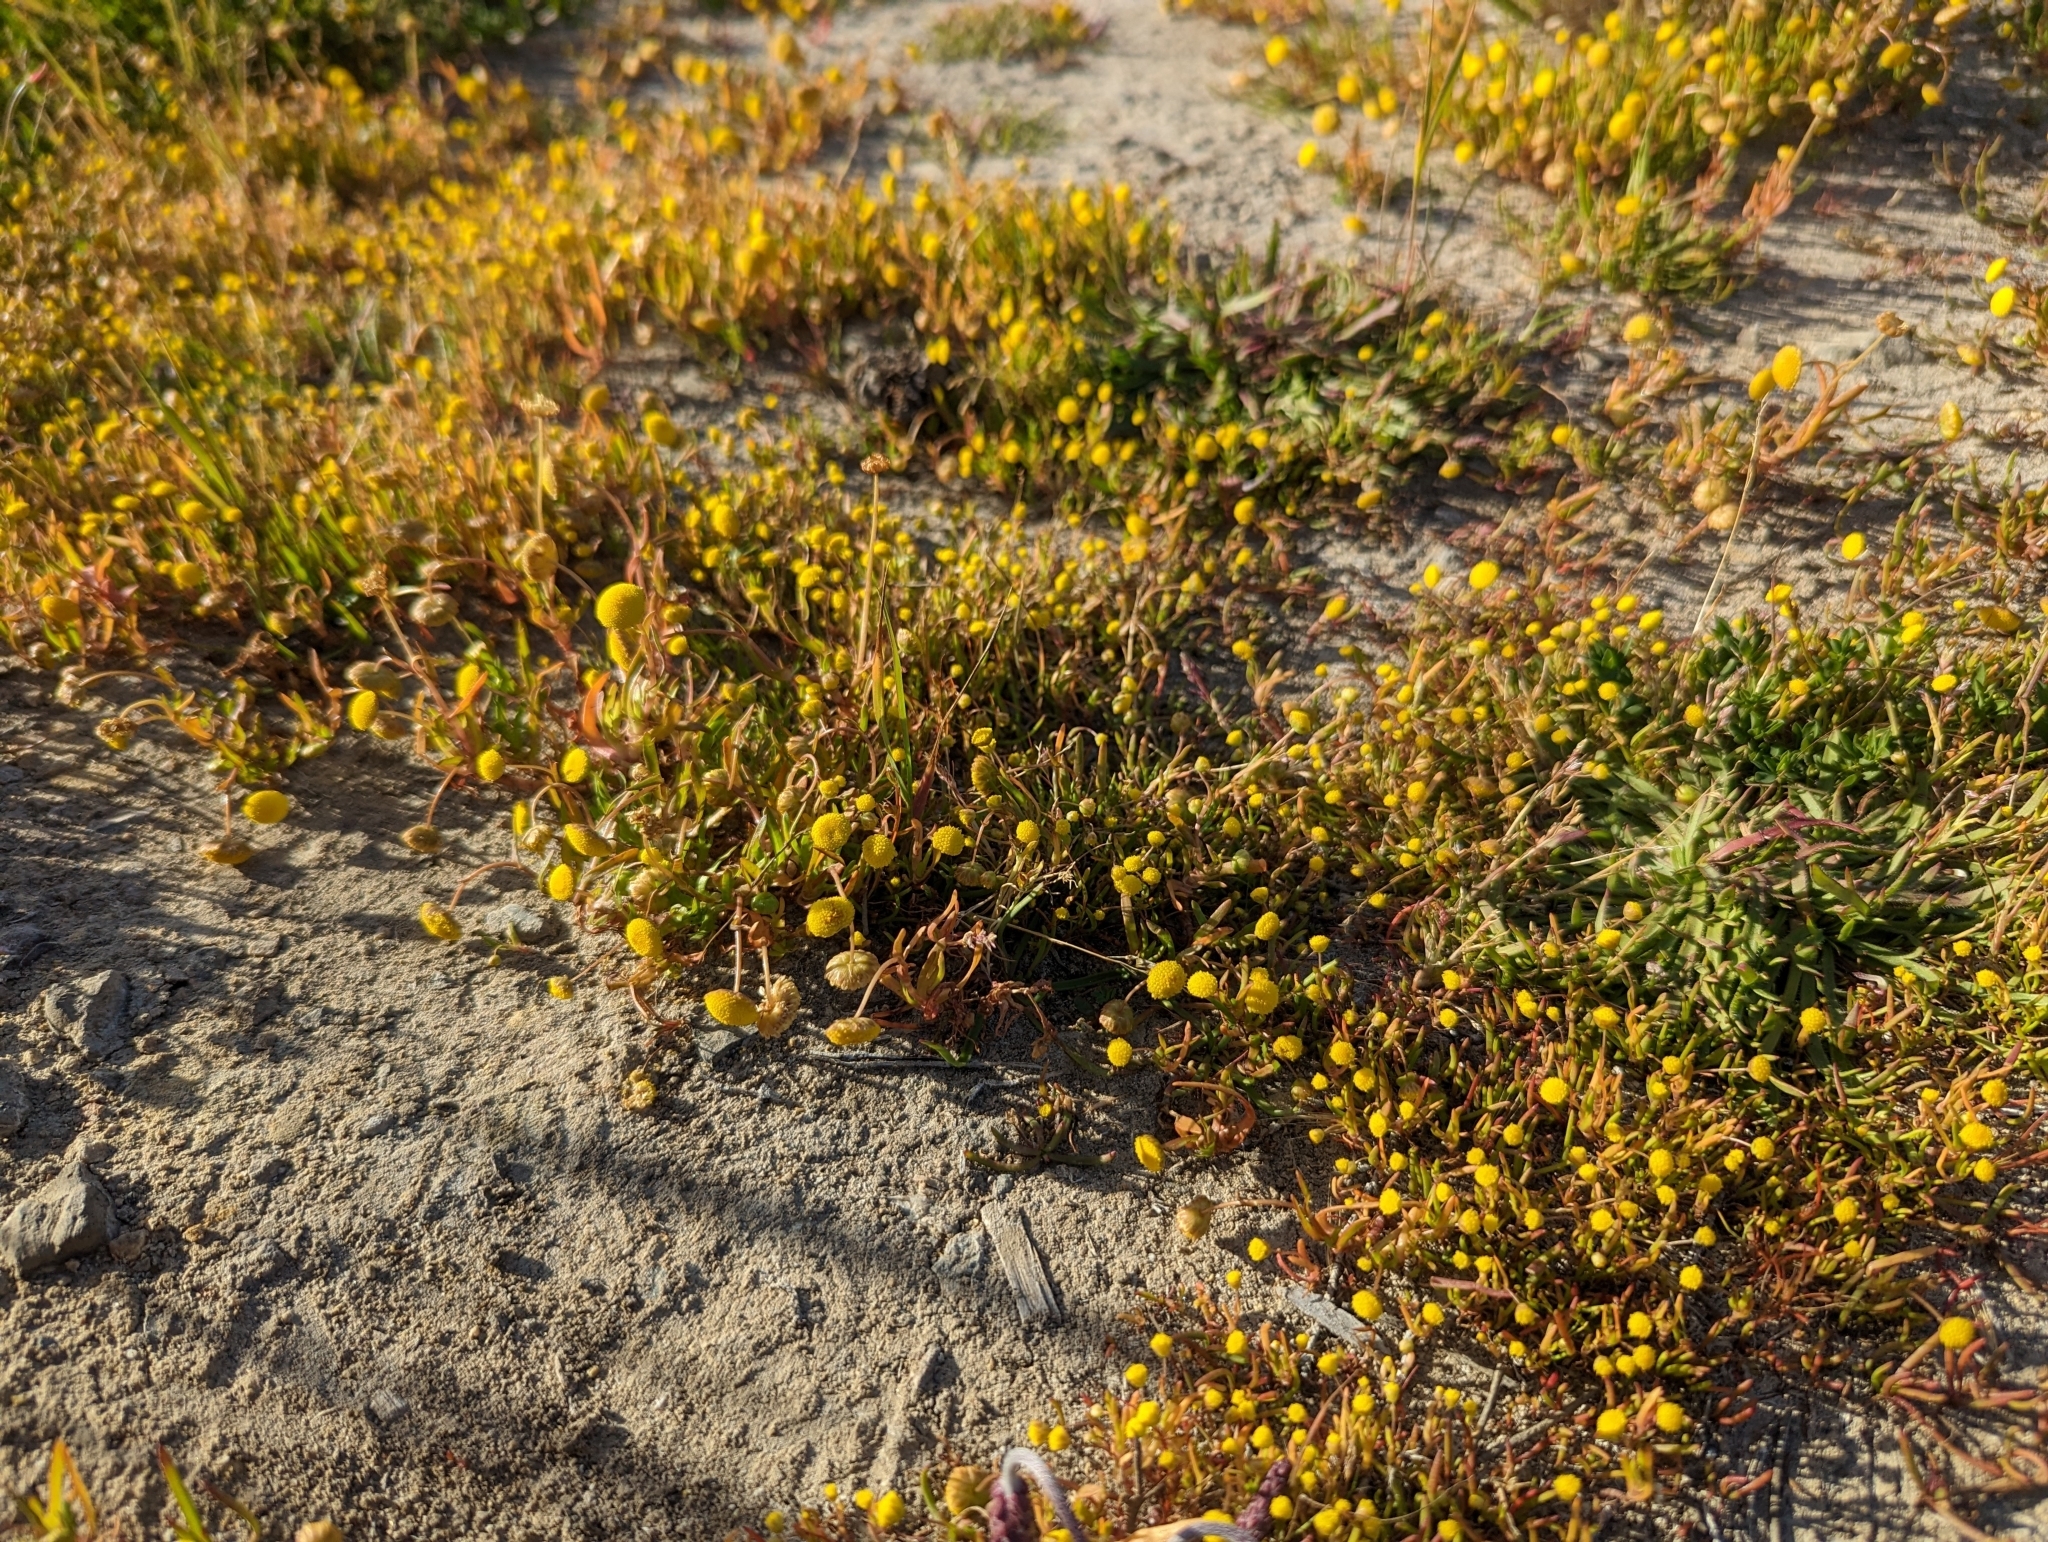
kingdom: Plantae
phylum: Tracheophyta
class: Magnoliopsida
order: Asterales
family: Asteraceae
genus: Cotula
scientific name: Cotula coronopifolia
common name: Buttonweed
